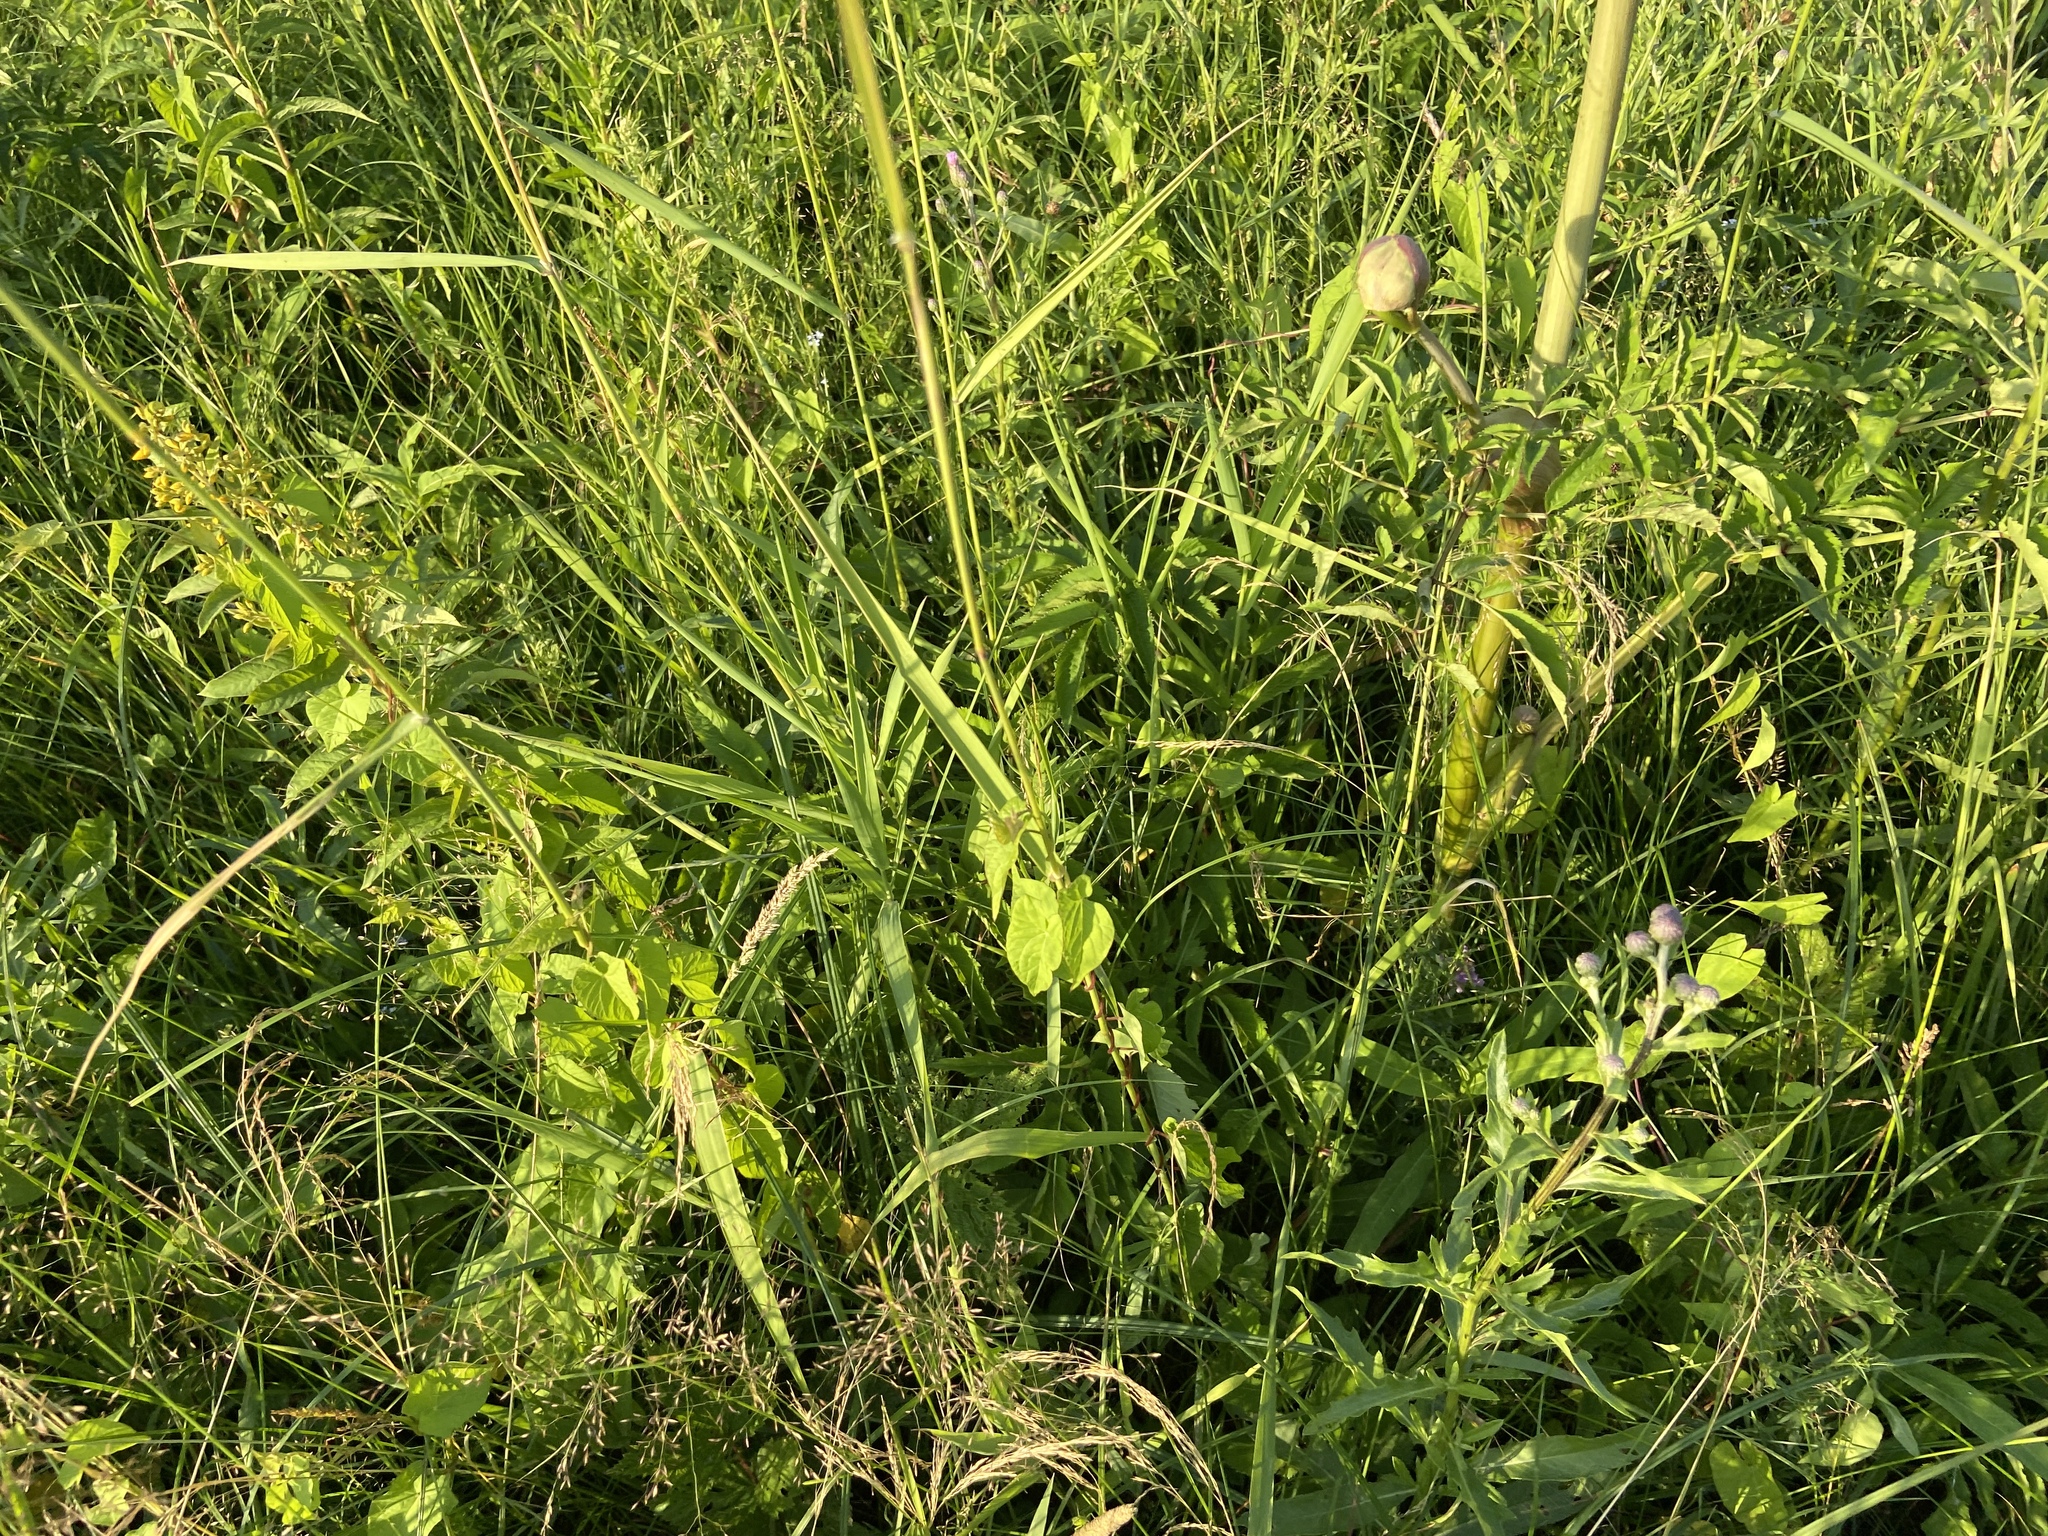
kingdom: Plantae
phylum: Tracheophyta
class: Magnoliopsida
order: Ericales
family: Primulaceae
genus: Lysimachia
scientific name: Lysimachia vulgaris
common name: Yellow loosestrife
